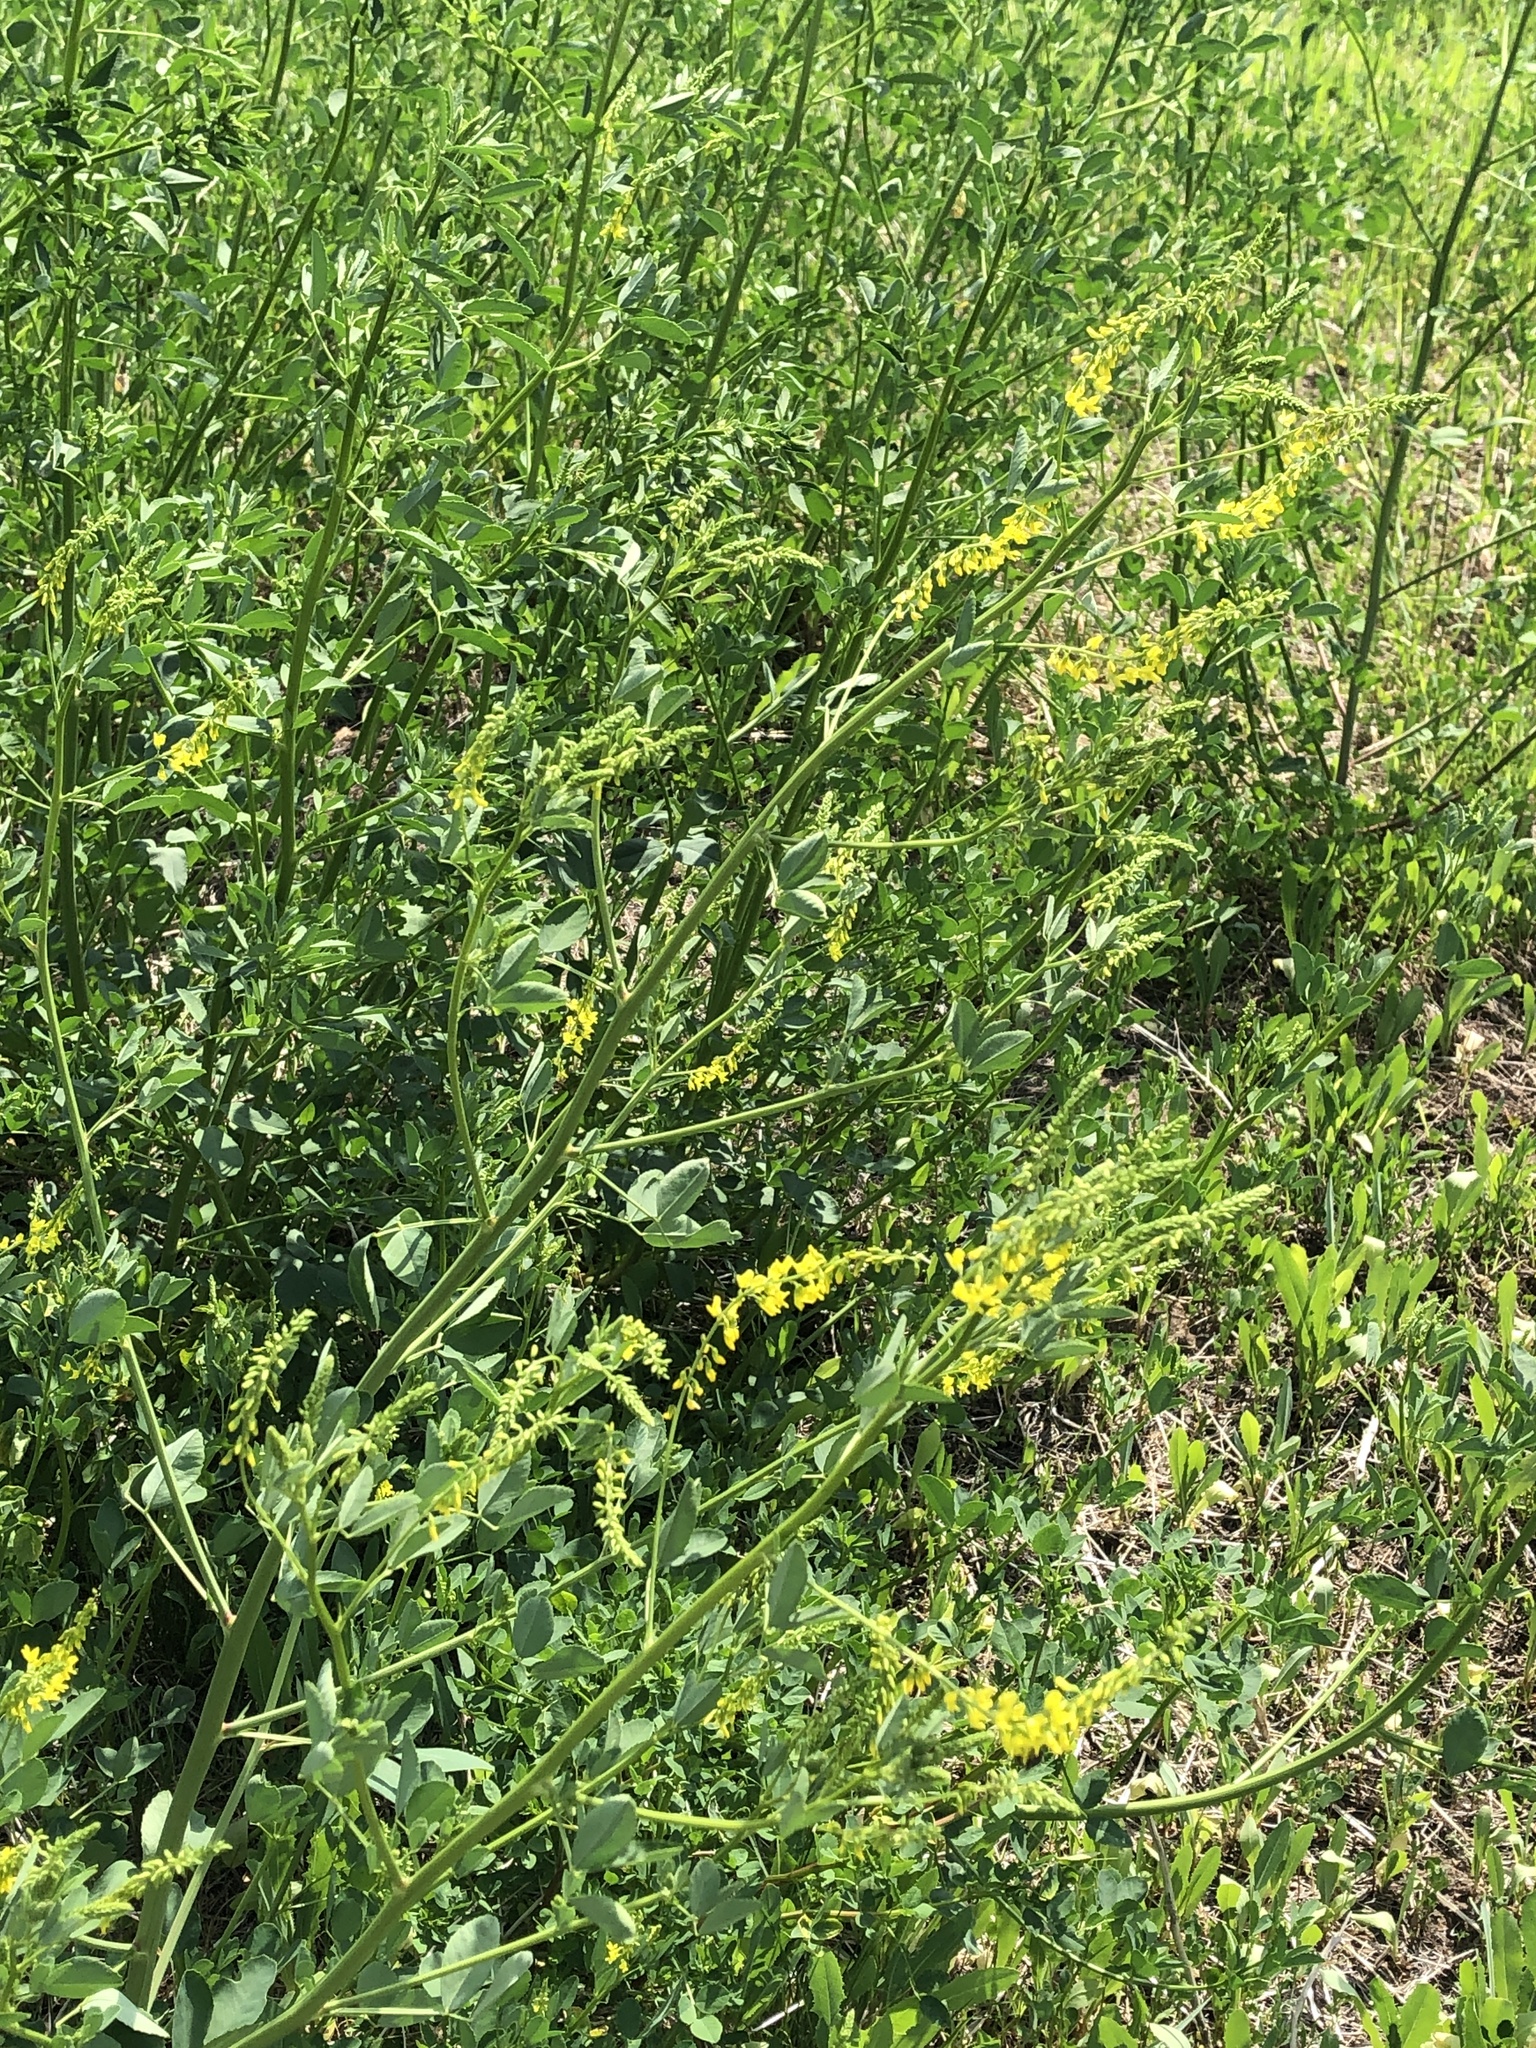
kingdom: Plantae
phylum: Tracheophyta
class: Magnoliopsida
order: Fabales
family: Fabaceae
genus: Melilotus
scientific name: Melilotus officinalis
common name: Sweetclover
